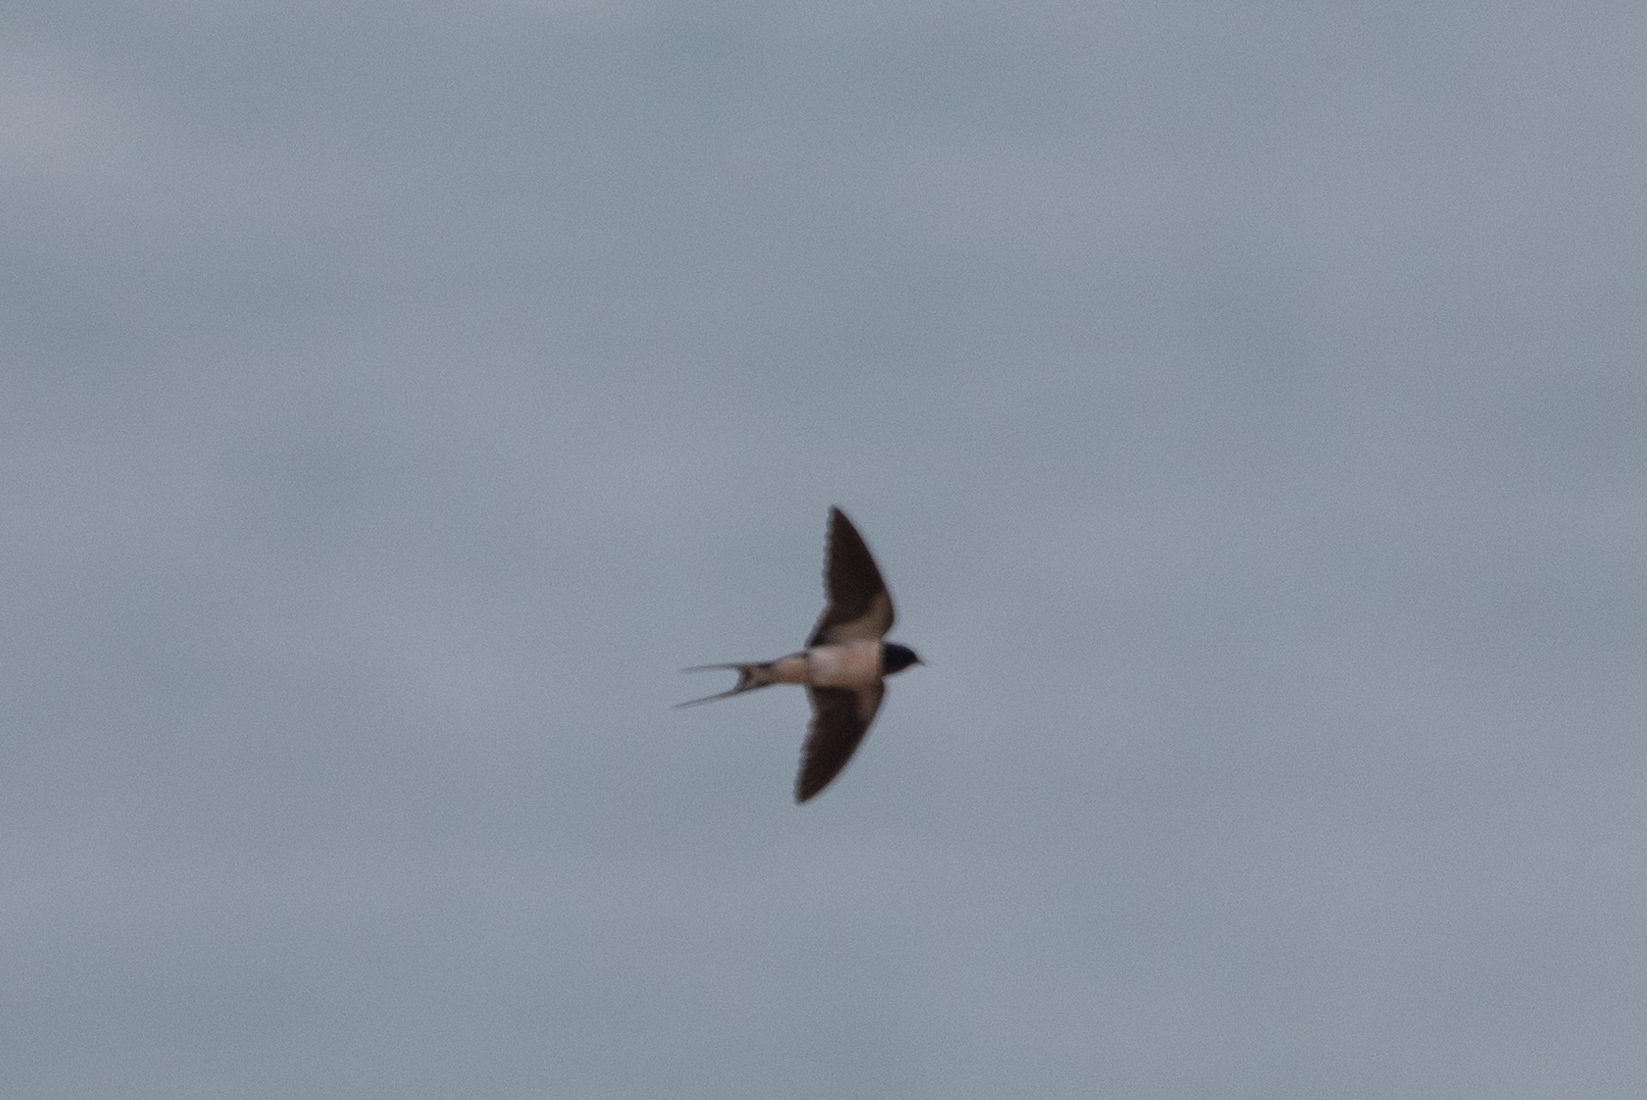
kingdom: Animalia
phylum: Chordata
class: Aves
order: Passeriformes
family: Hirundinidae
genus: Hirundo
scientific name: Hirundo rustica
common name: Barn swallow
